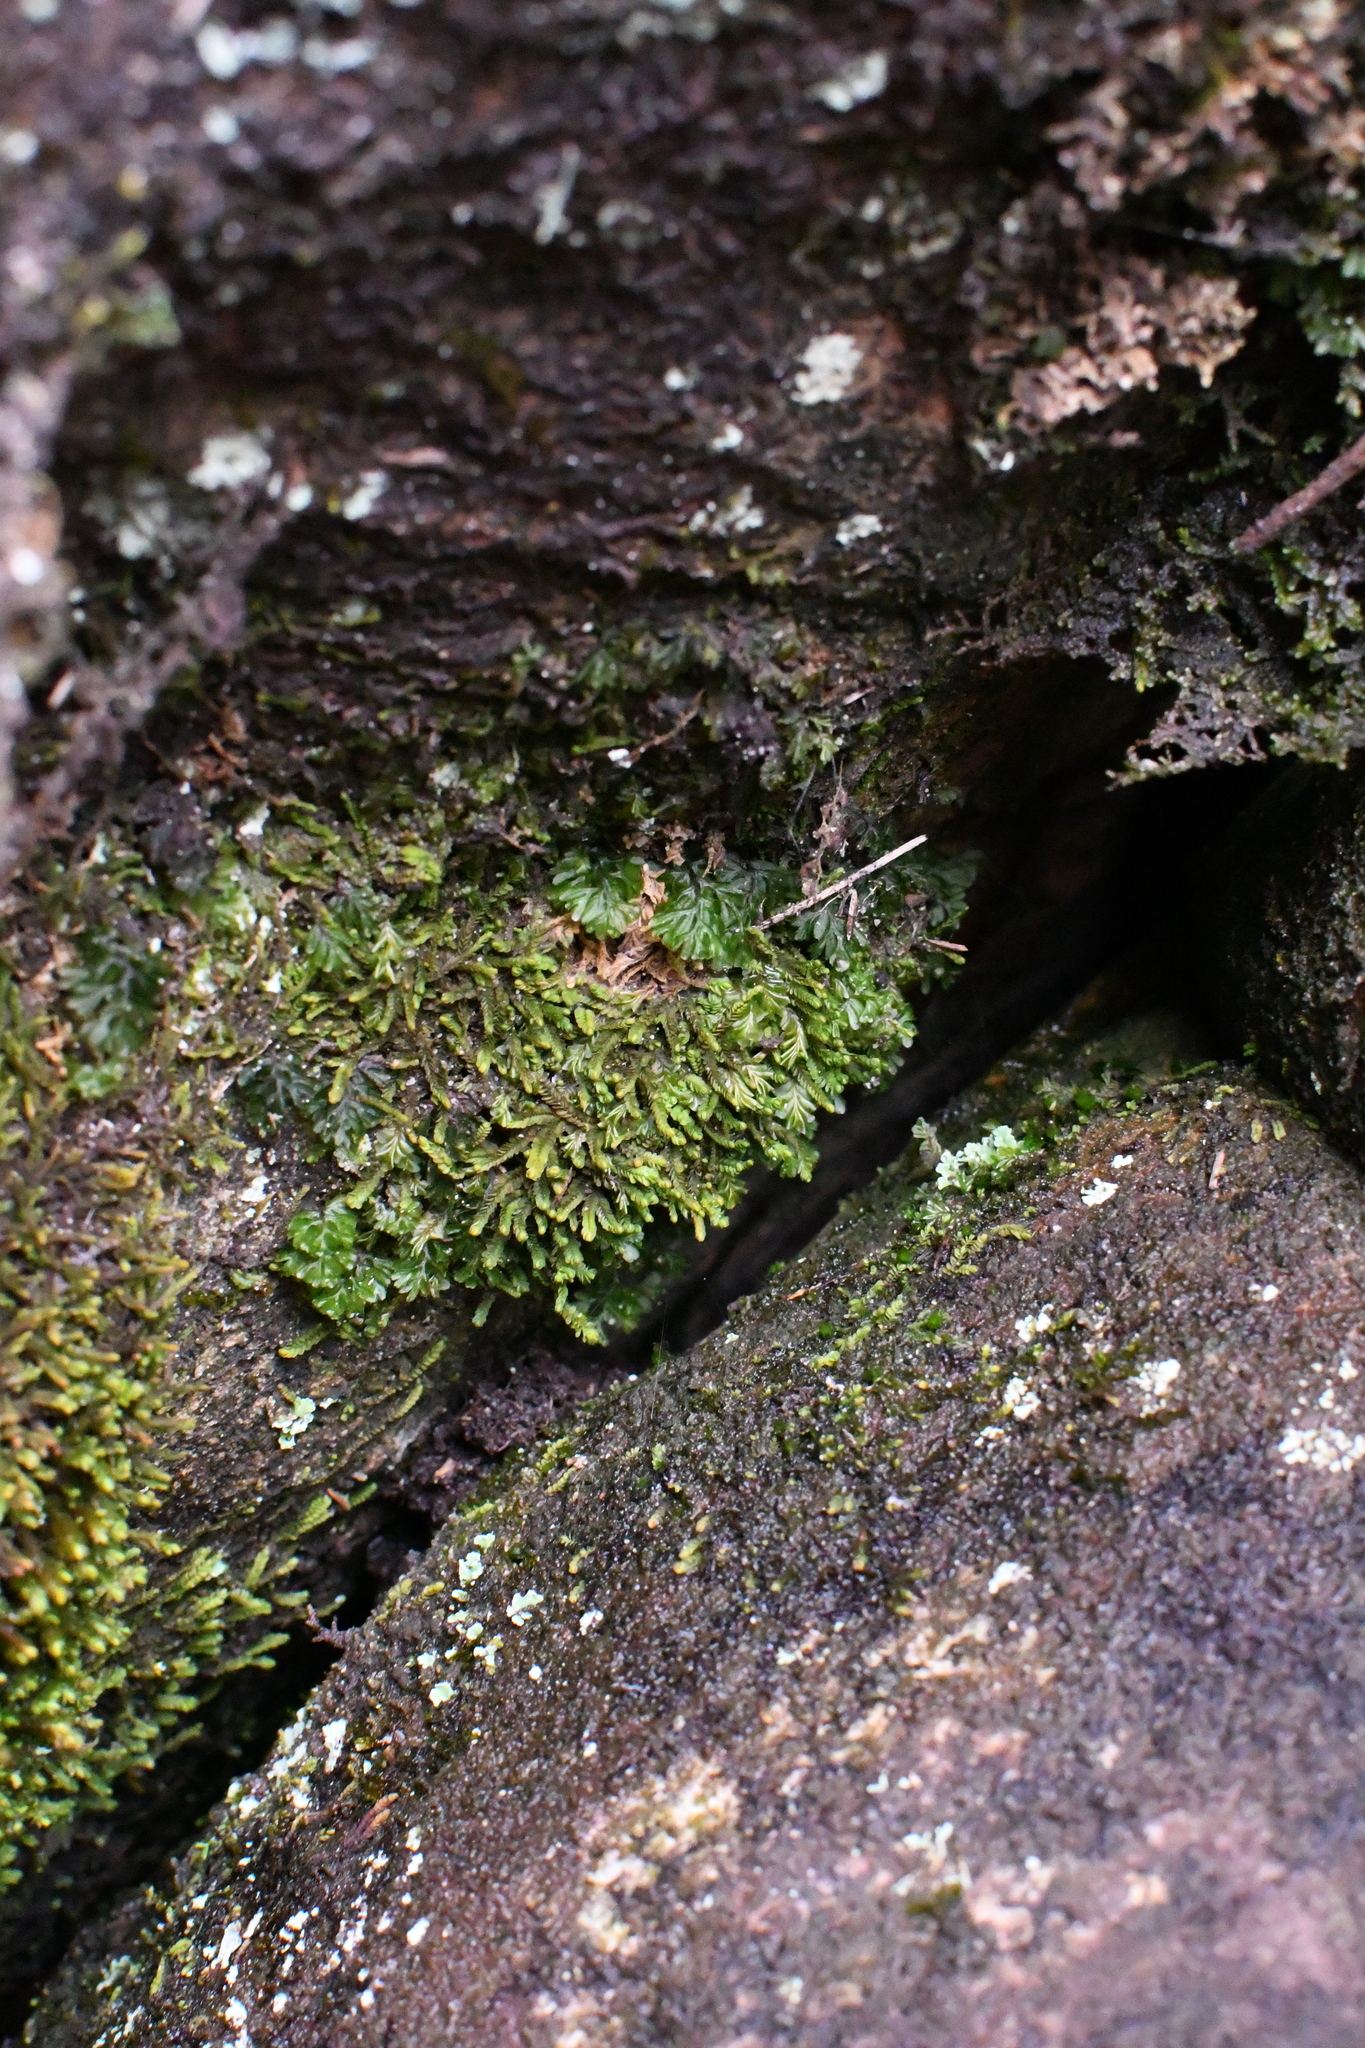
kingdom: Plantae
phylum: Tracheophyta
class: Polypodiopsida
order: Hymenophyllales
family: Hymenophyllaceae
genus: Hymenophyllum
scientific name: Hymenophyllum cupressiforme
